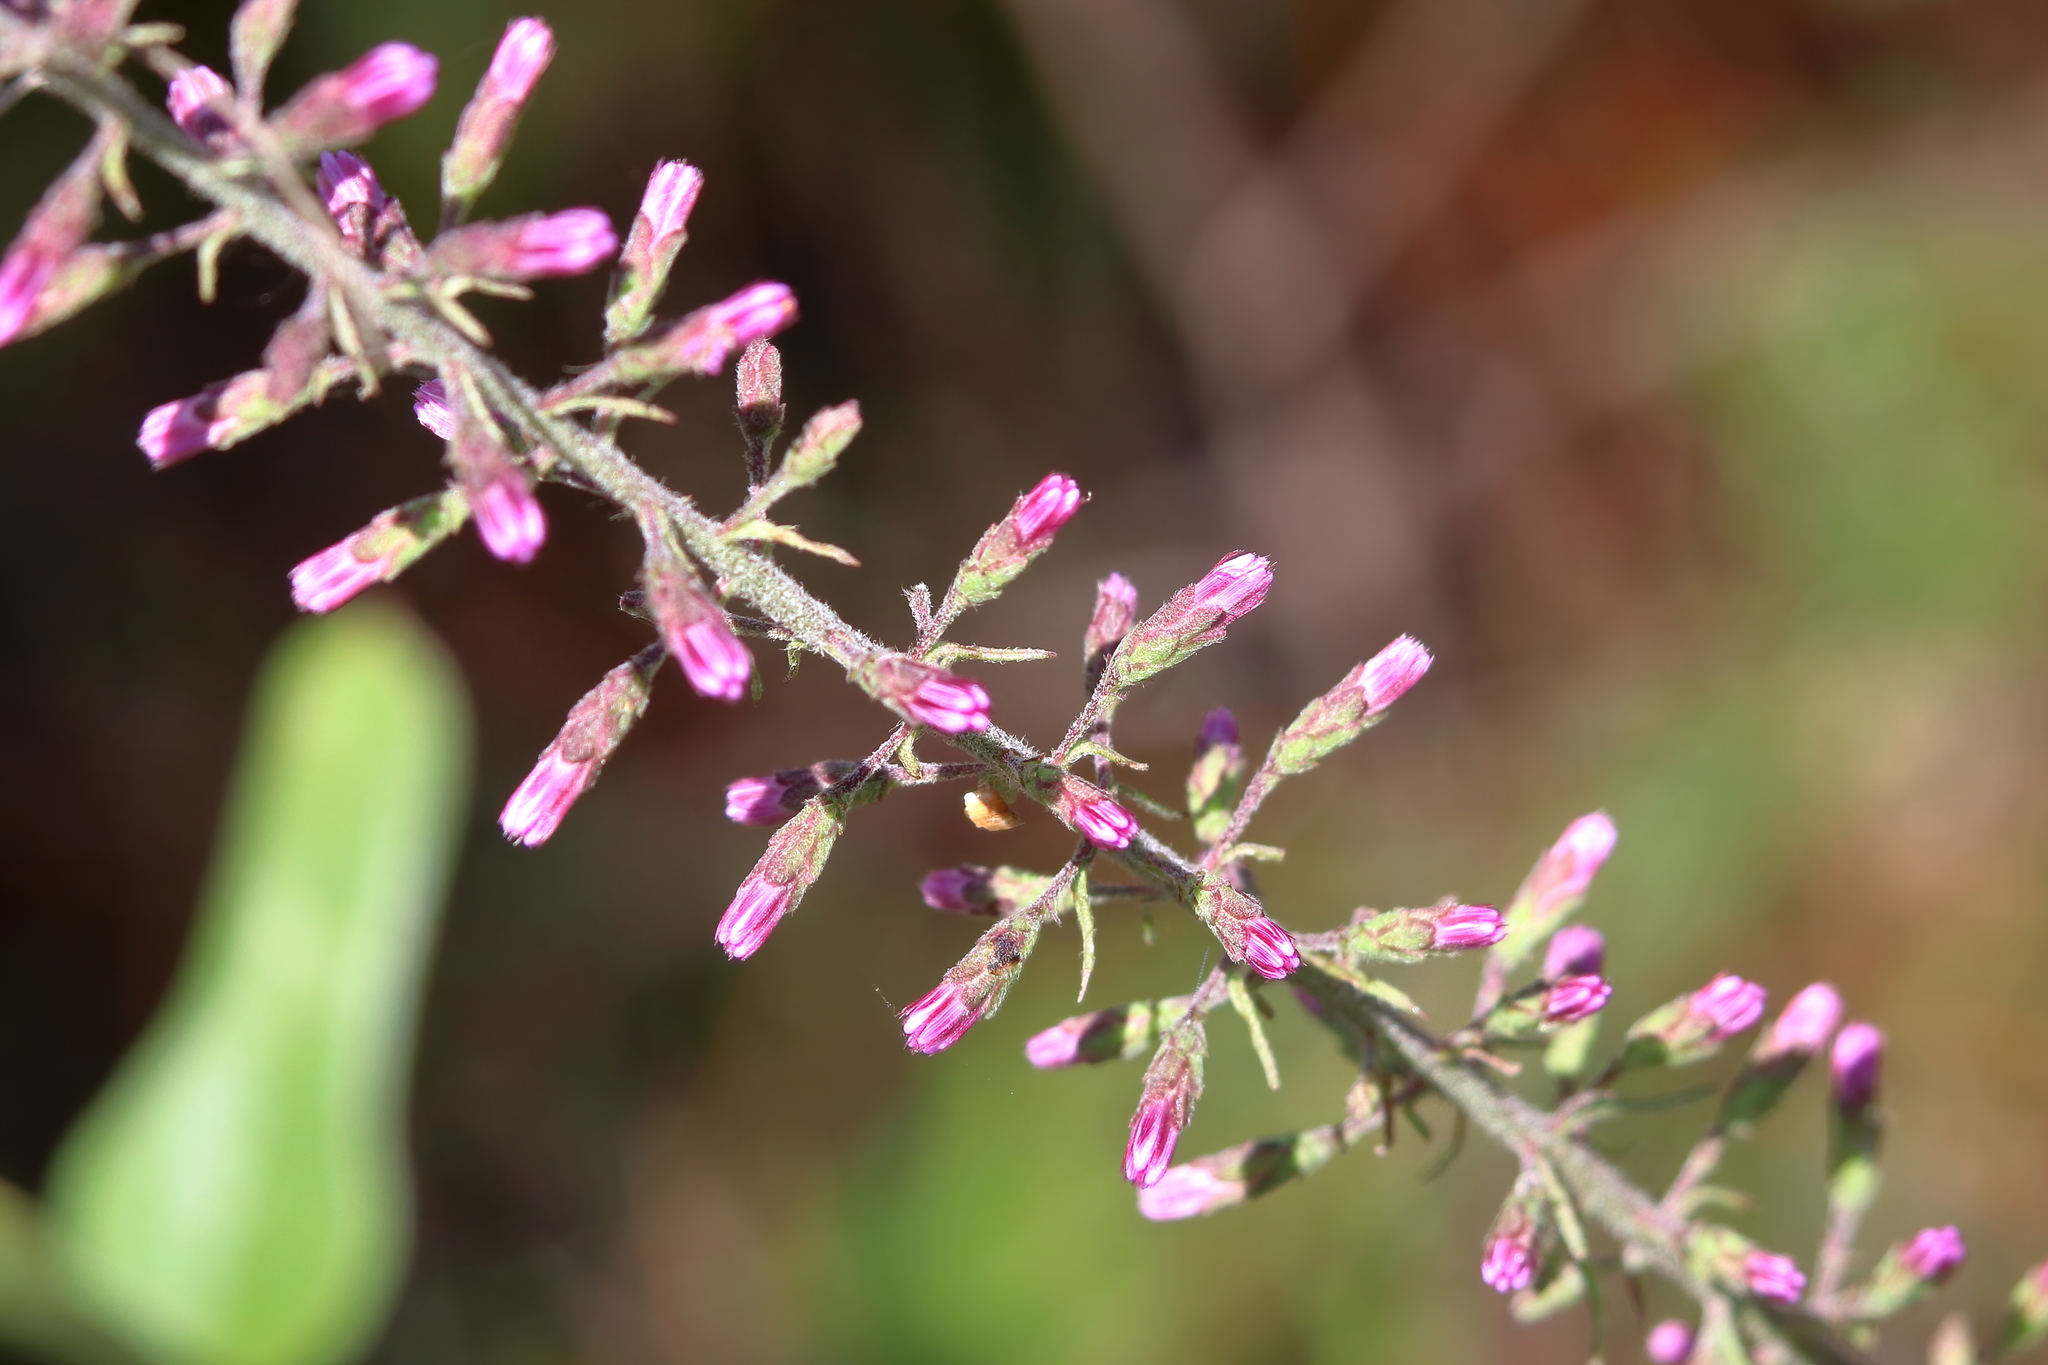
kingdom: Plantae
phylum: Tracheophyta
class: Magnoliopsida
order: Asterales
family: Asteraceae
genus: Liatris
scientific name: Liatris gracilis
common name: Slender gayfeather
